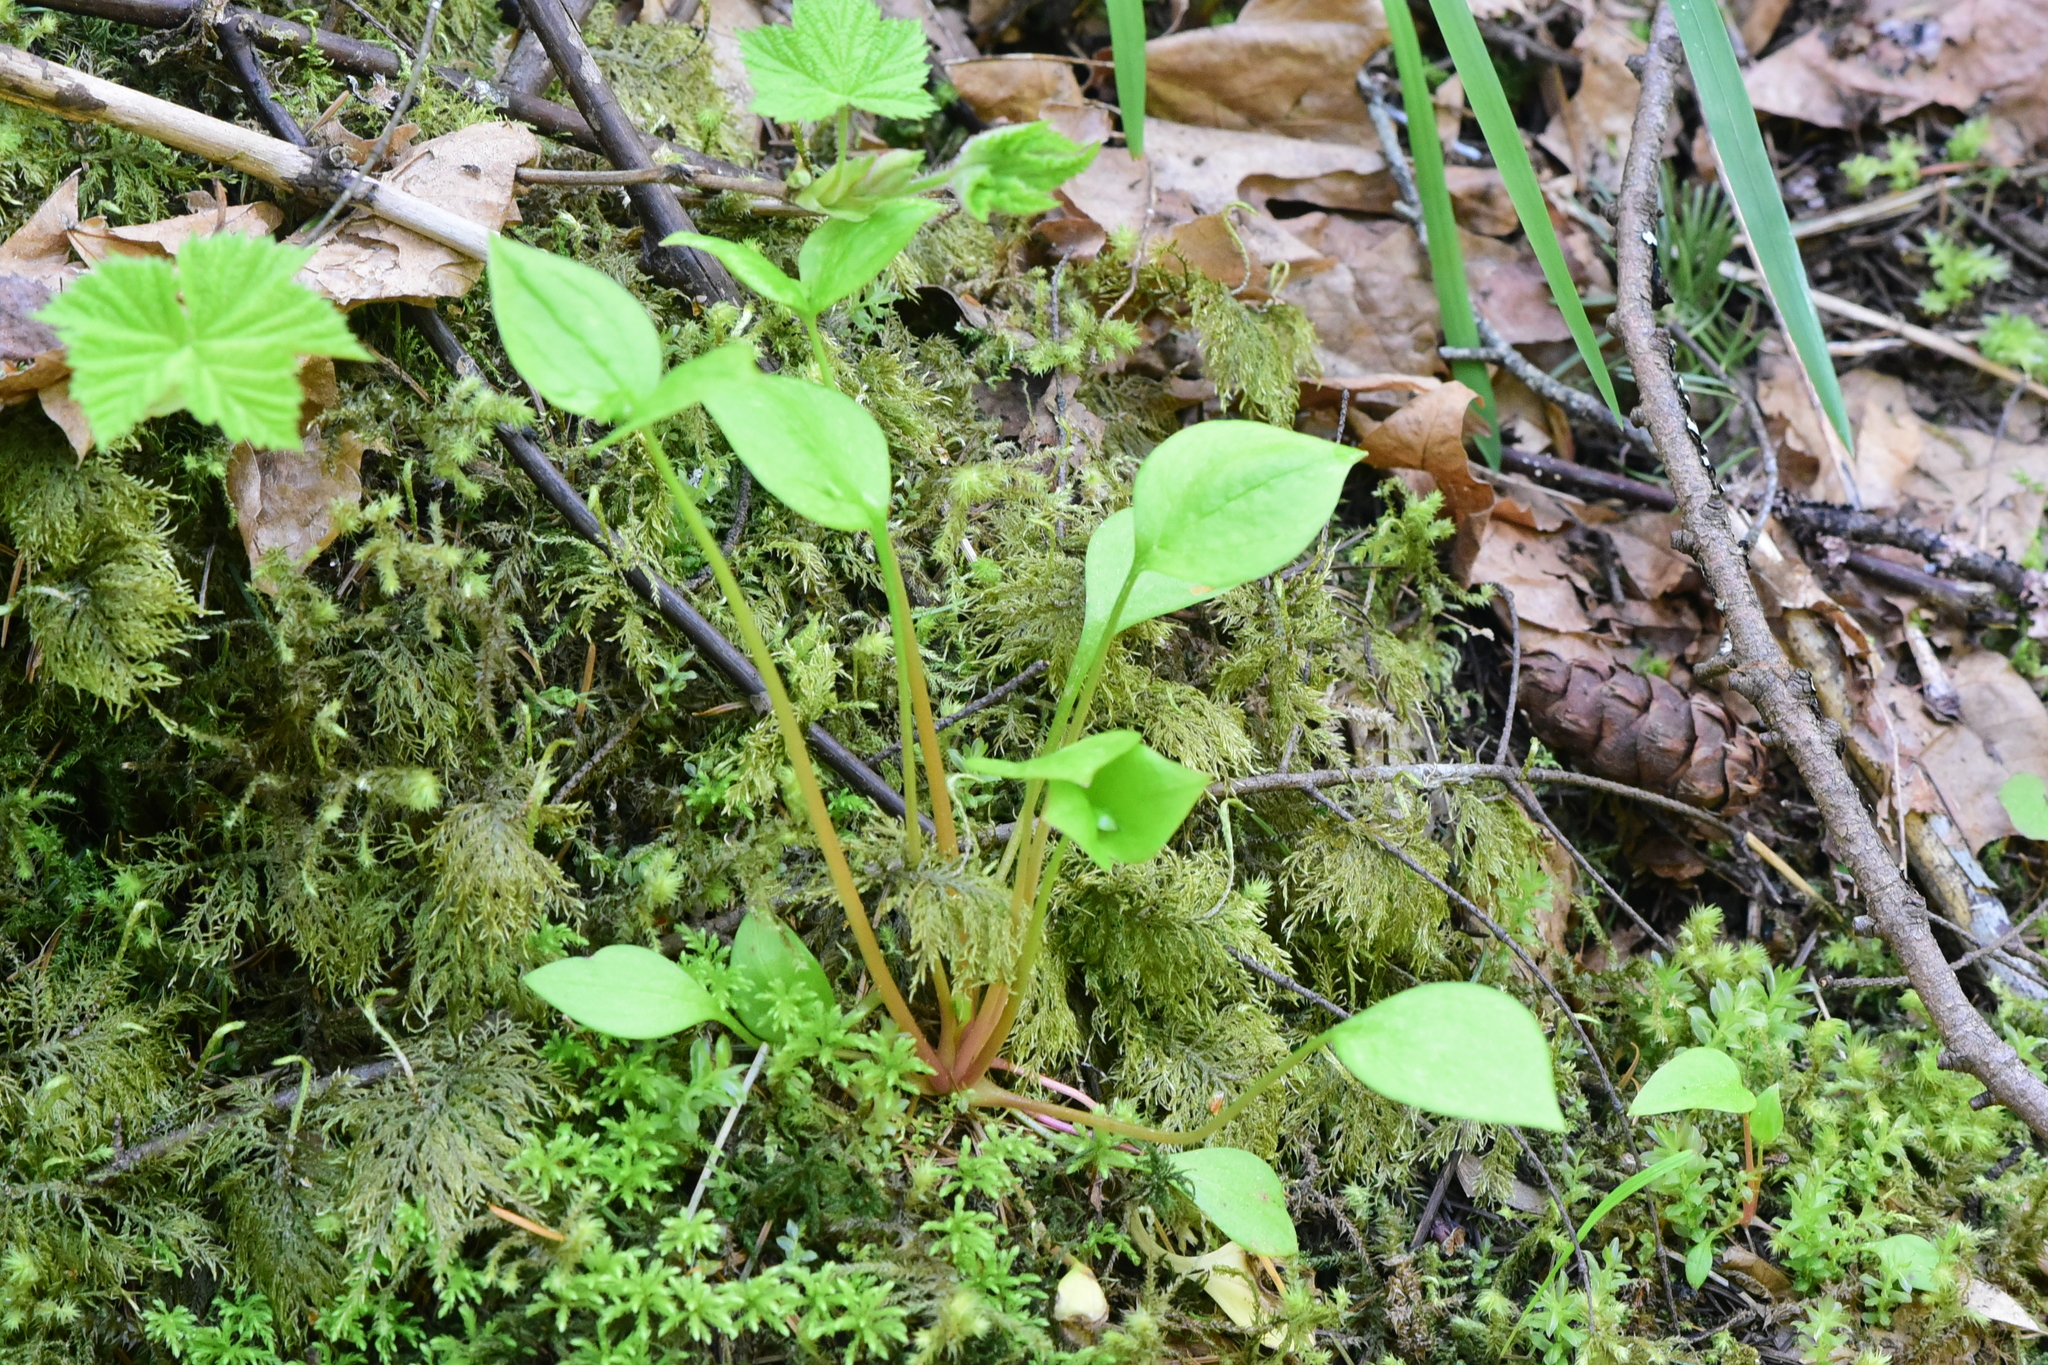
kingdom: Plantae
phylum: Tracheophyta
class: Magnoliopsida
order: Caryophyllales
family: Montiaceae
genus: Claytonia
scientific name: Claytonia sibirica
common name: Pink purslane
